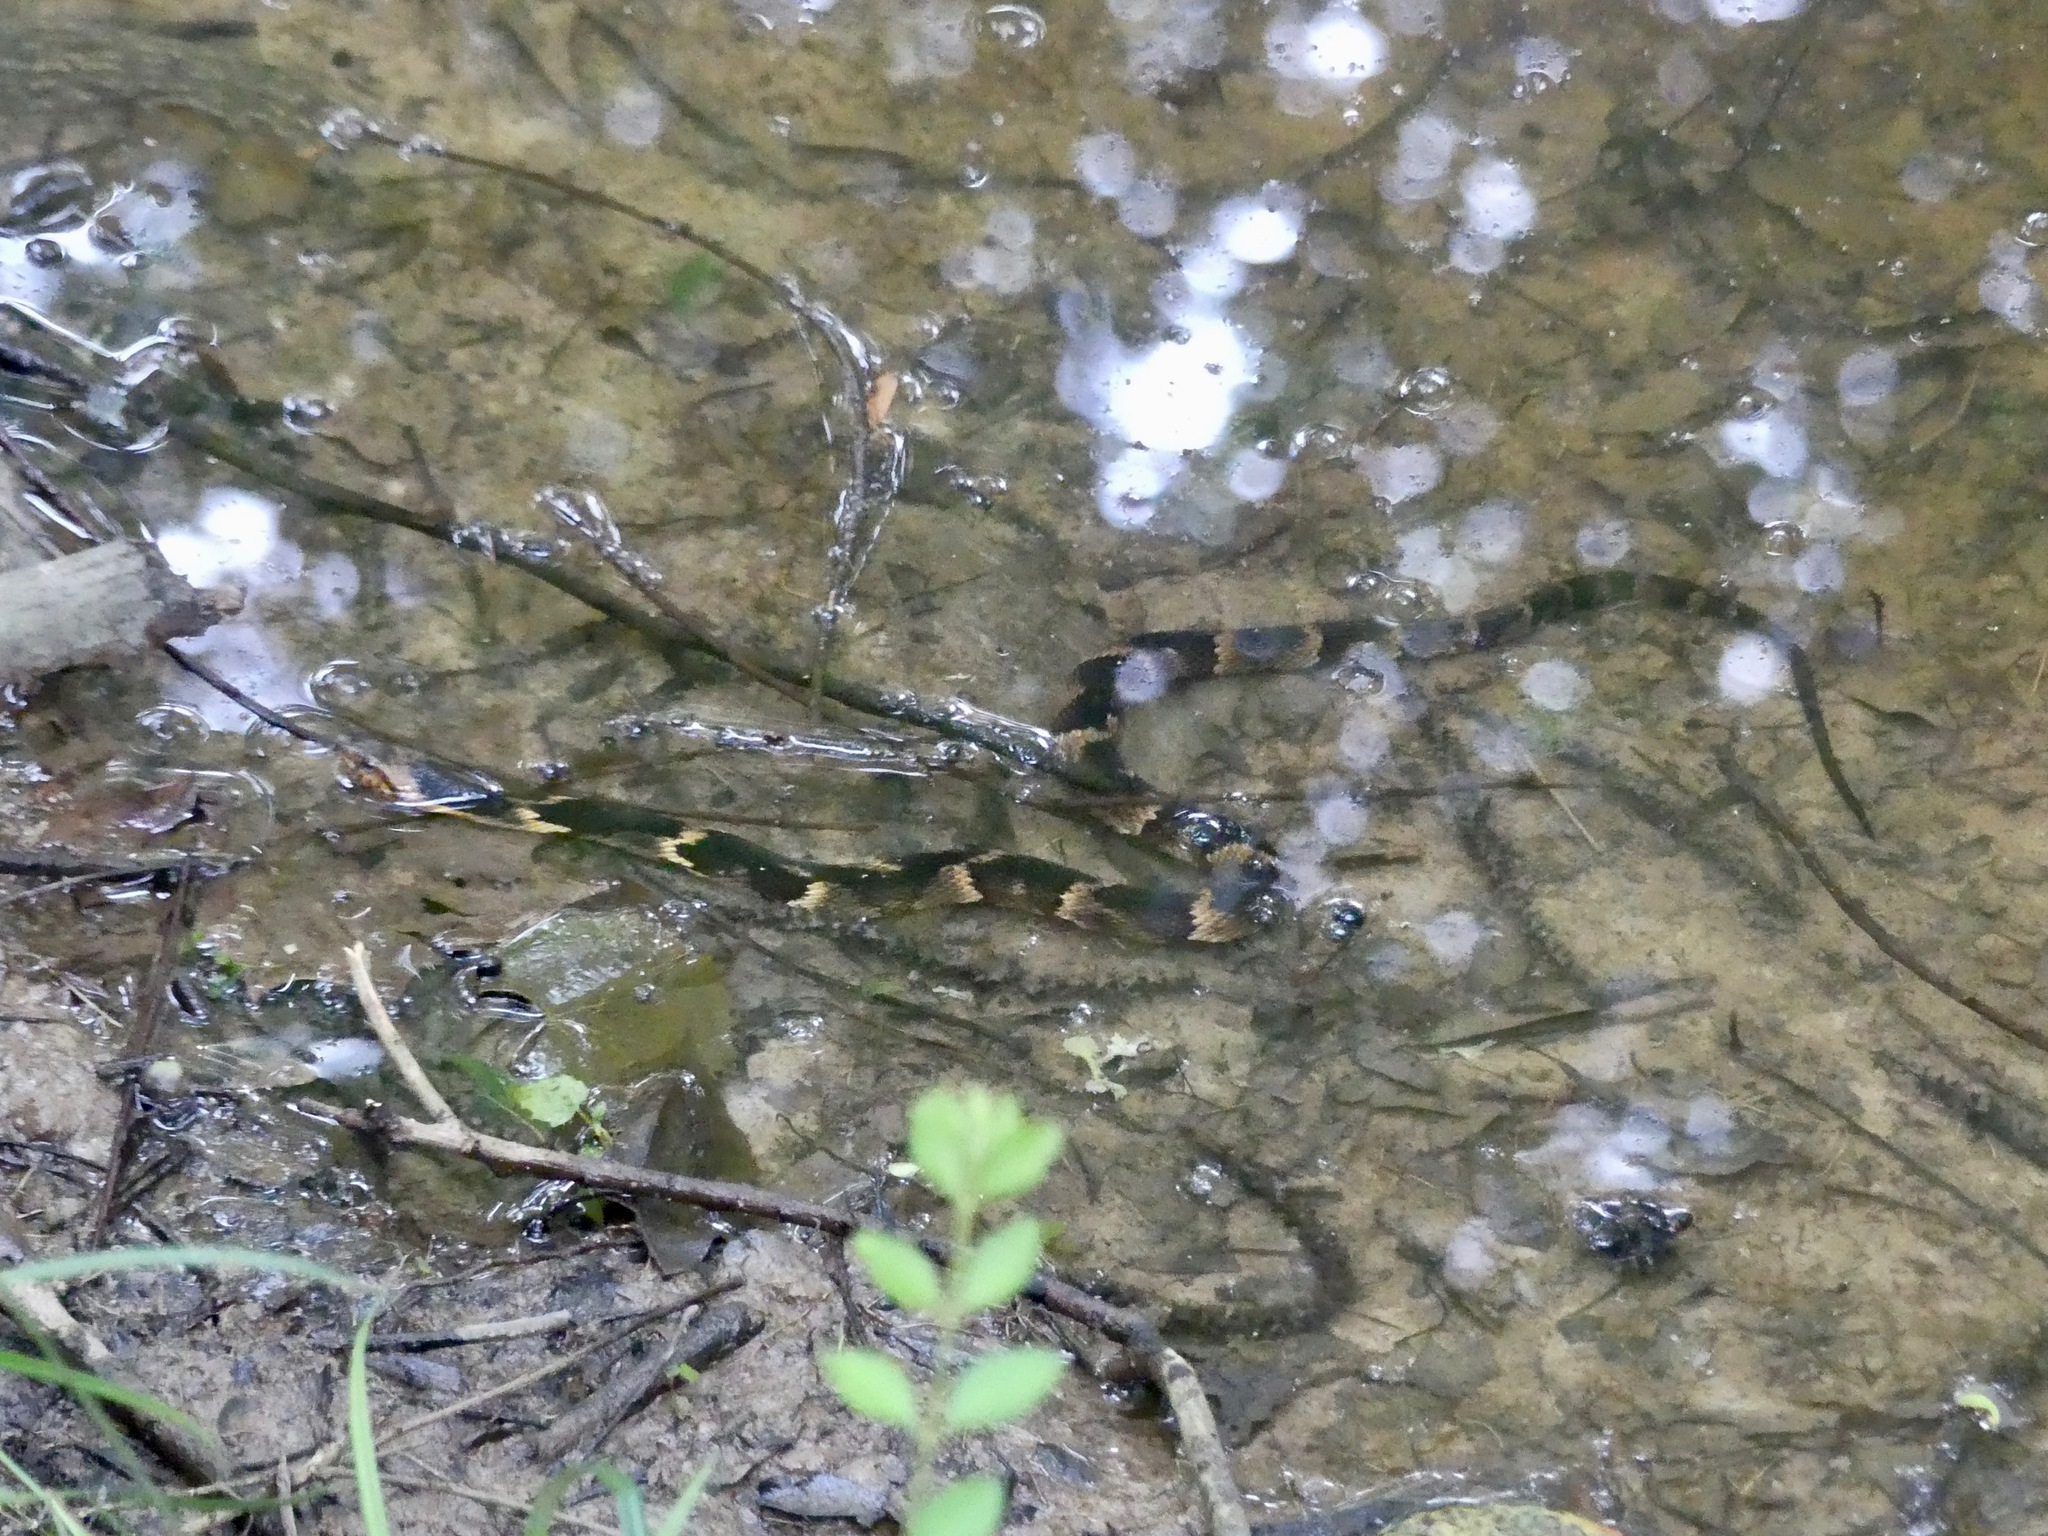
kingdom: Animalia
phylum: Chordata
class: Squamata
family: Colubridae
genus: Nerodia
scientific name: Nerodia fasciata
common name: Southern water snake
